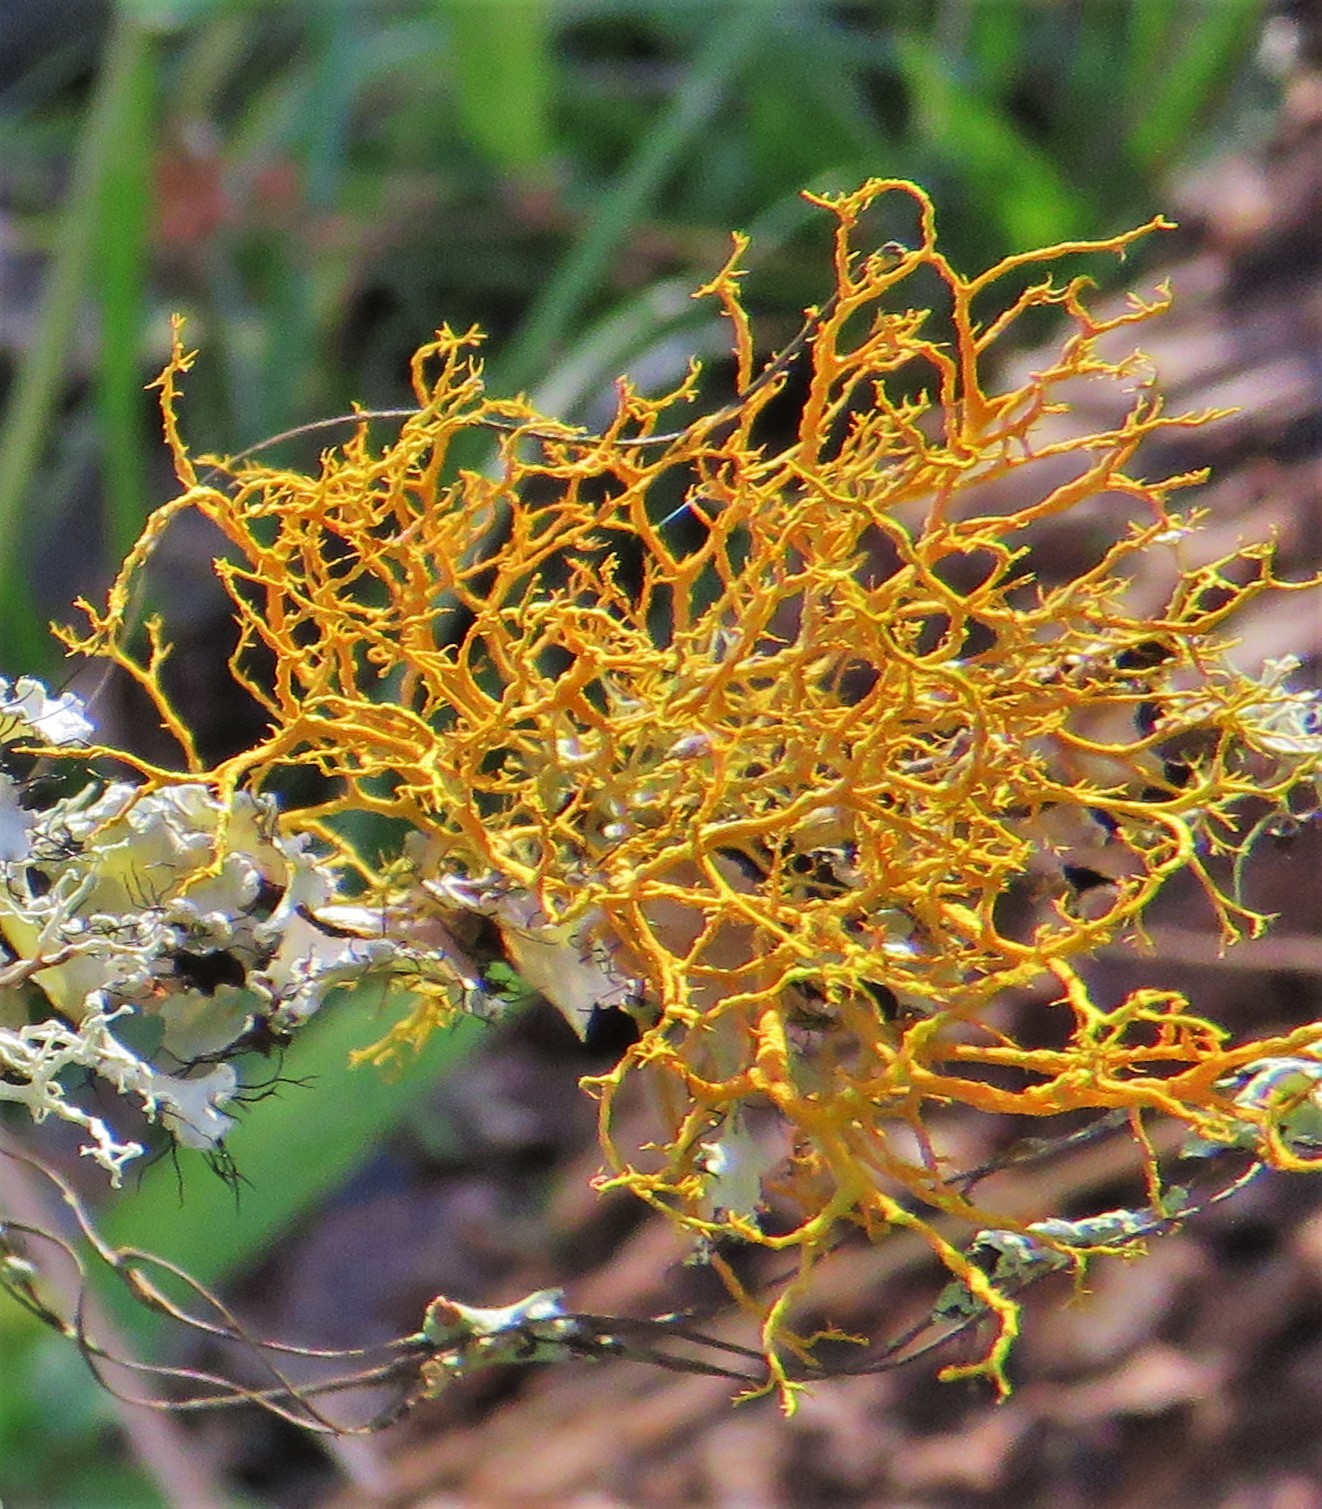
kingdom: Fungi
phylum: Ascomycota
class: Lecanoromycetes
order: Teloschistales
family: Teloschistaceae
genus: Teloschistes
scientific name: Teloschistes exilis
